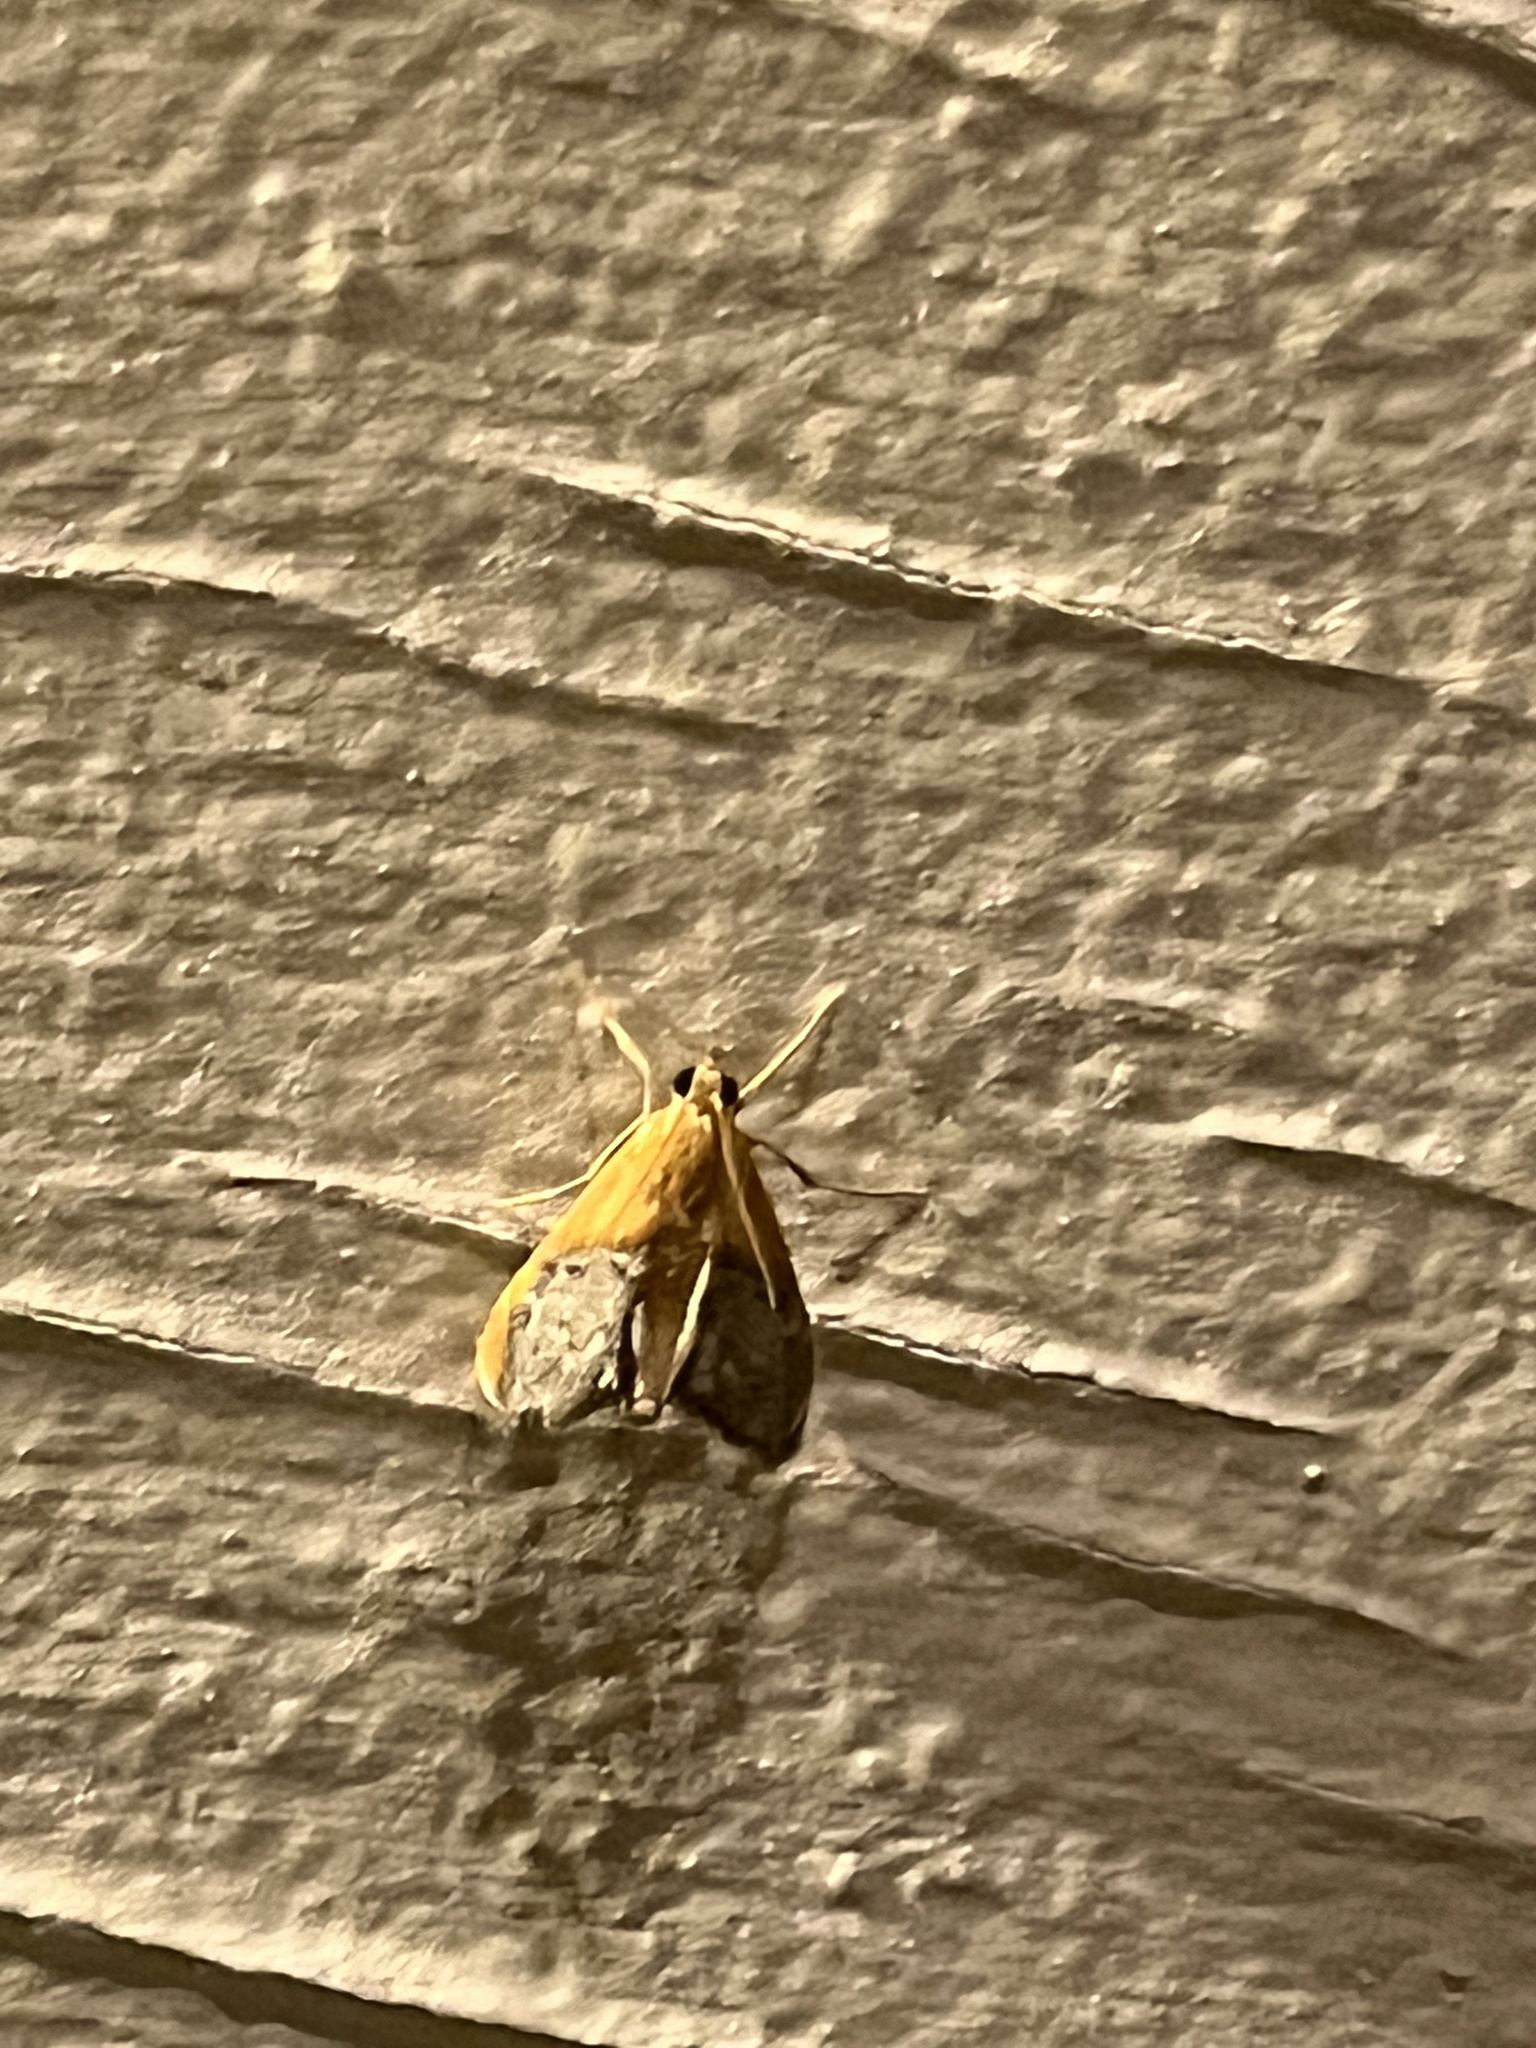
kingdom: Animalia
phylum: Arthropoda
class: Insecta
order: Lepidoptera
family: Crambidae
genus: Chalcoela
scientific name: Chalcoela iphitalis
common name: Sooty-winged chalcoela moth
